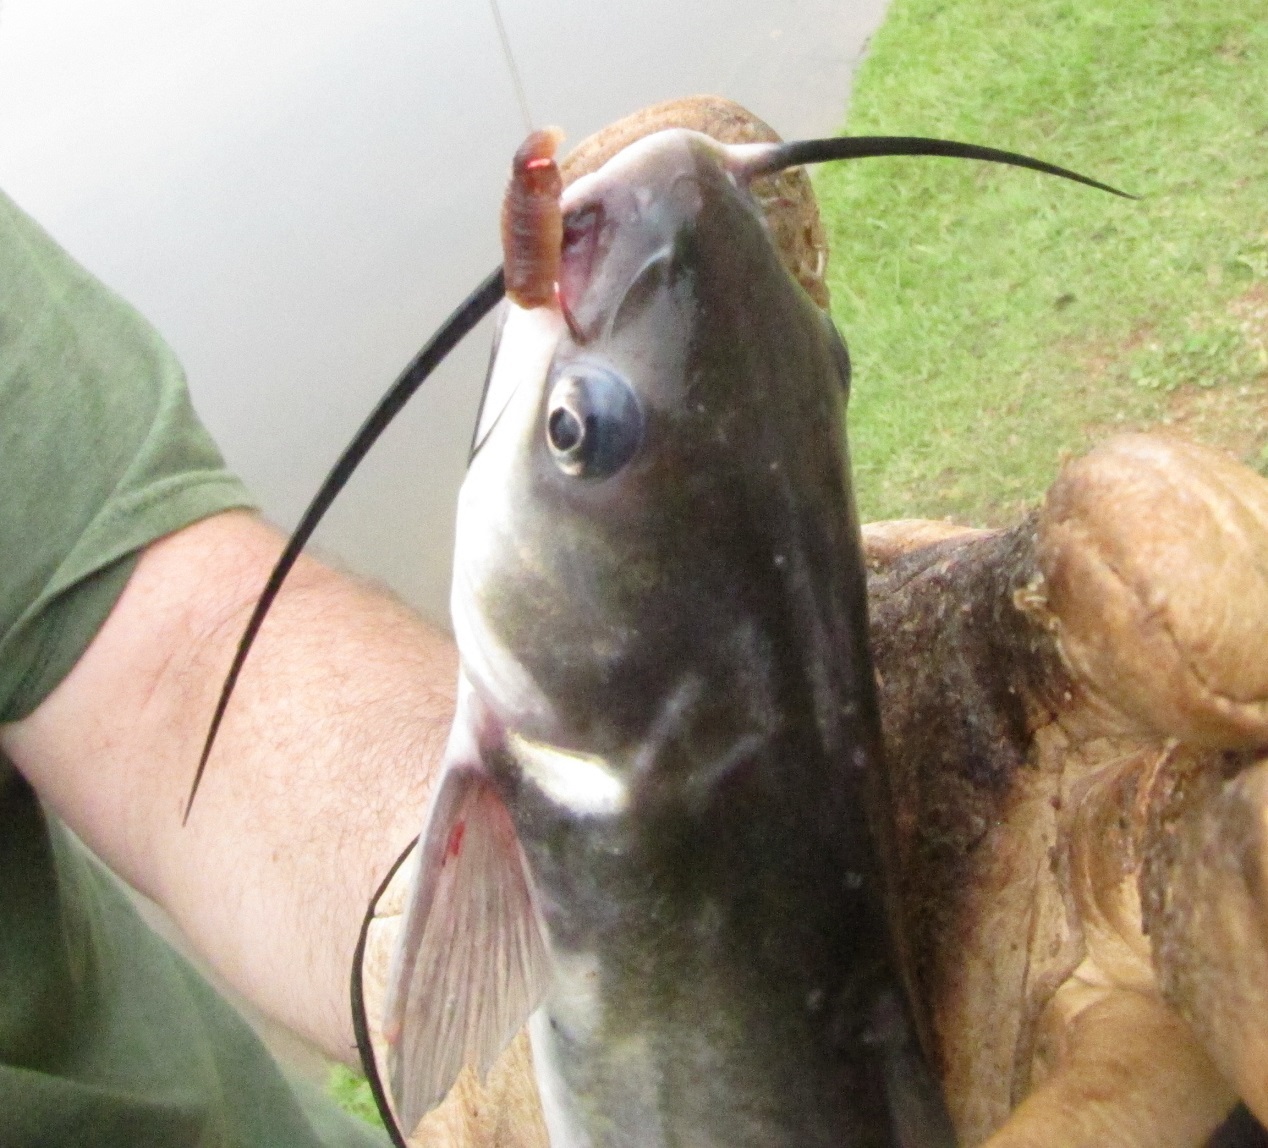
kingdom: Animalia
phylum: Chordata
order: Siluriformes
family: Ictaluridae
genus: Ictalurus
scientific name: Ictalurus punctatus
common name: Channel catfish
